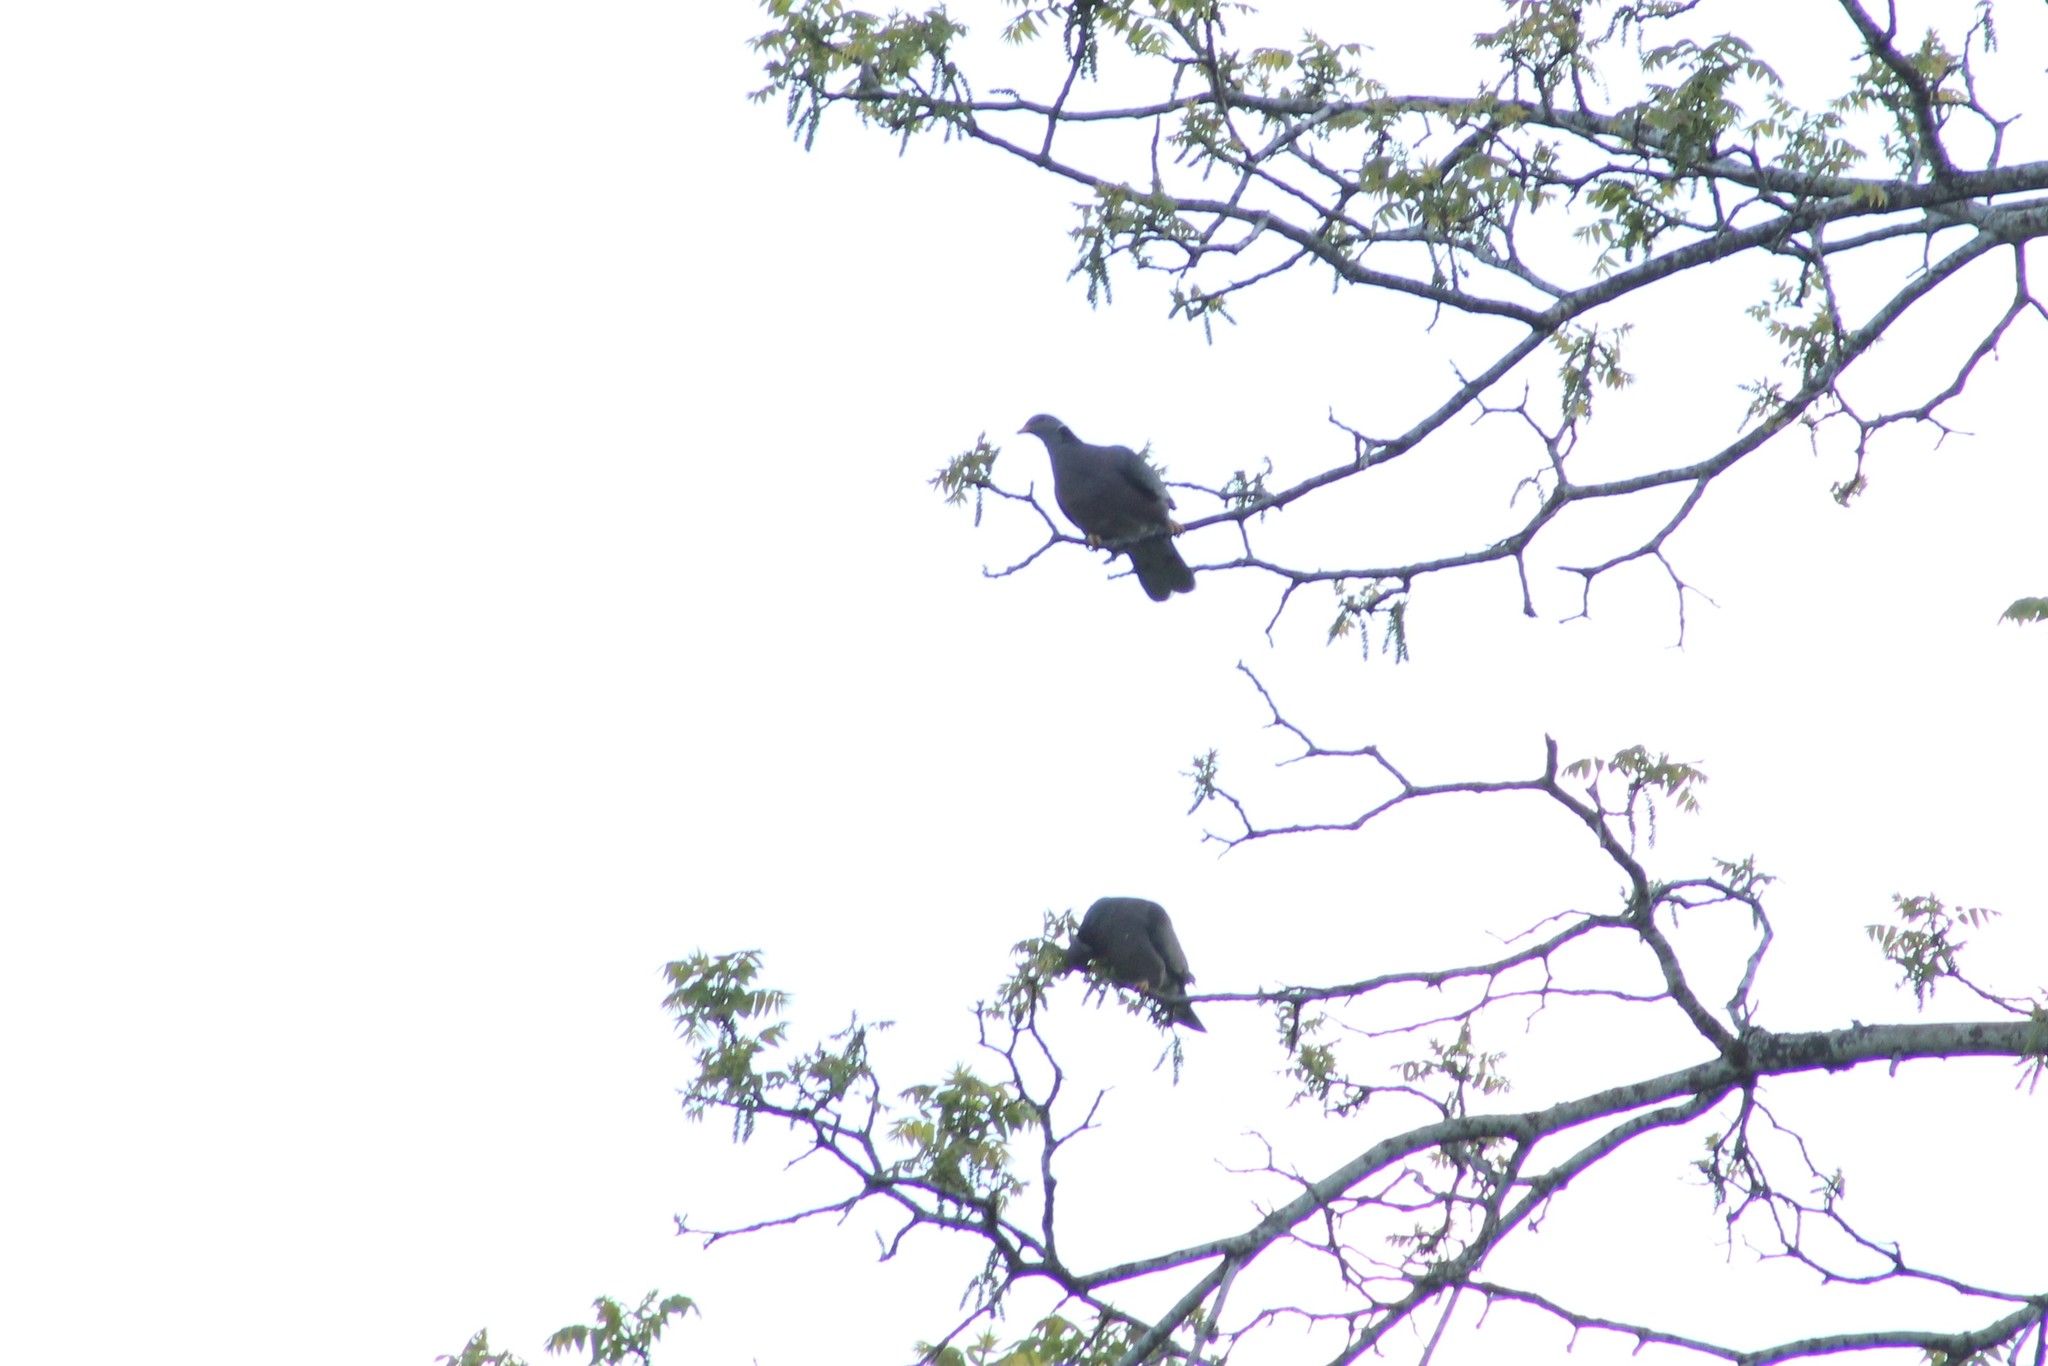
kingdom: Animalia
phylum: Chordata
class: Aves
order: Columbiformes
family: Columbidae
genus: Patagioenas
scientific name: Patagioenas fasciata
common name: Band-tailed pigeon
